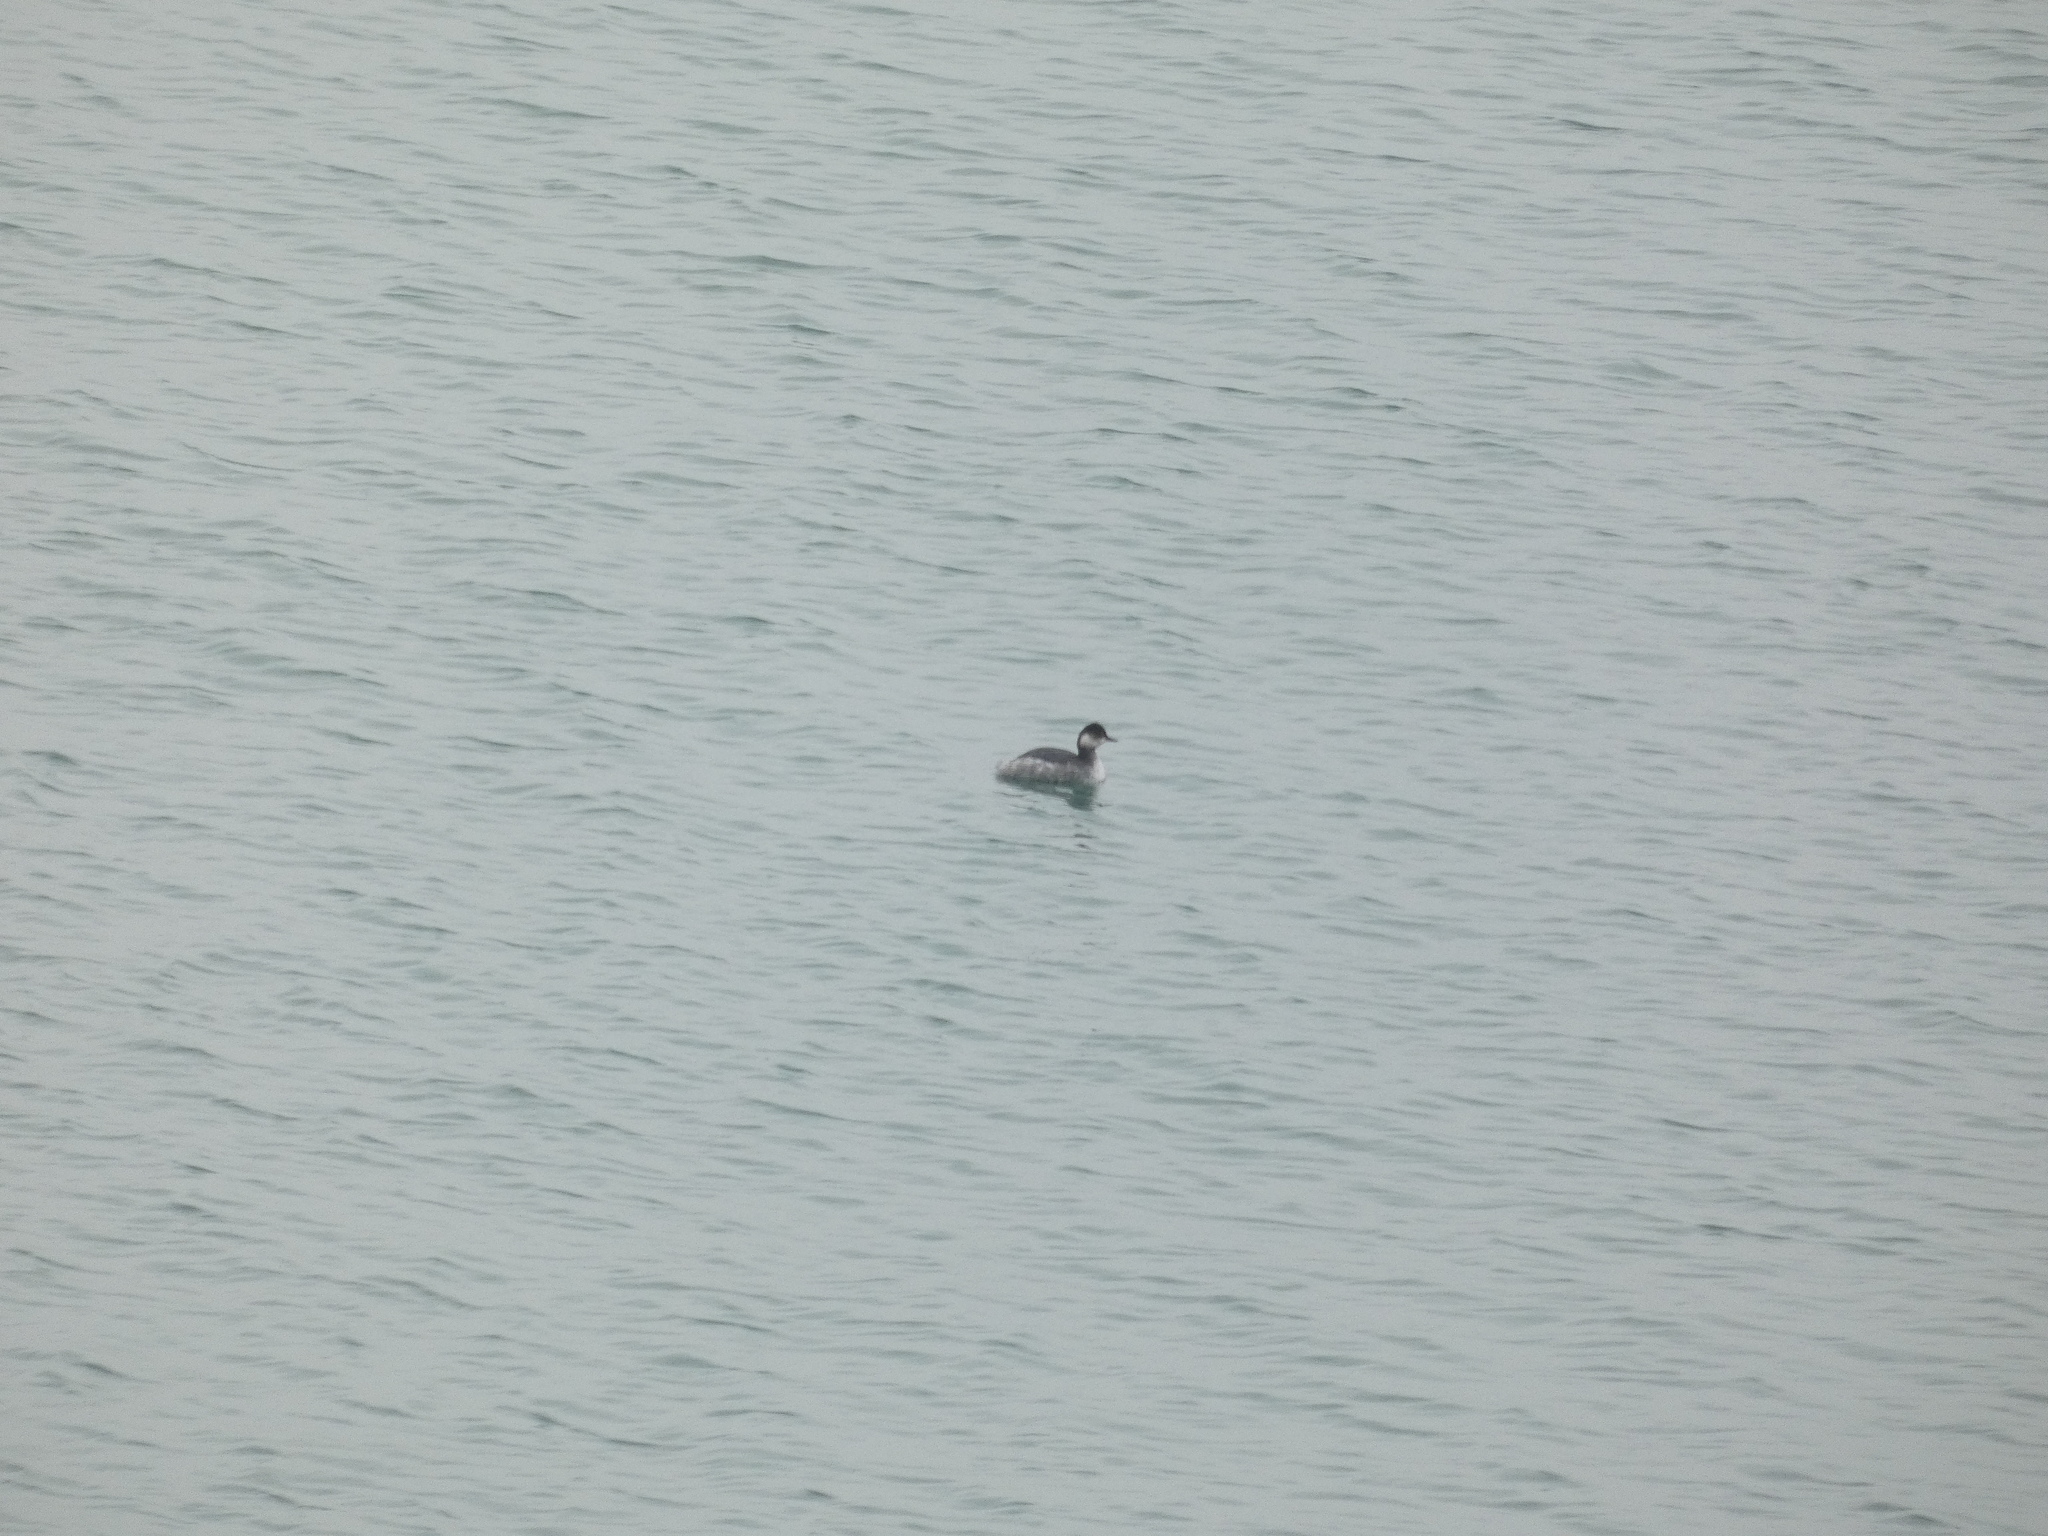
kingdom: Animalia
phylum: Chordata
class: Aves
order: Podicipediformes
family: Podicipedidae
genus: Podiceps
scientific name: Podiceps nigricollis
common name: Black-necked grebe
